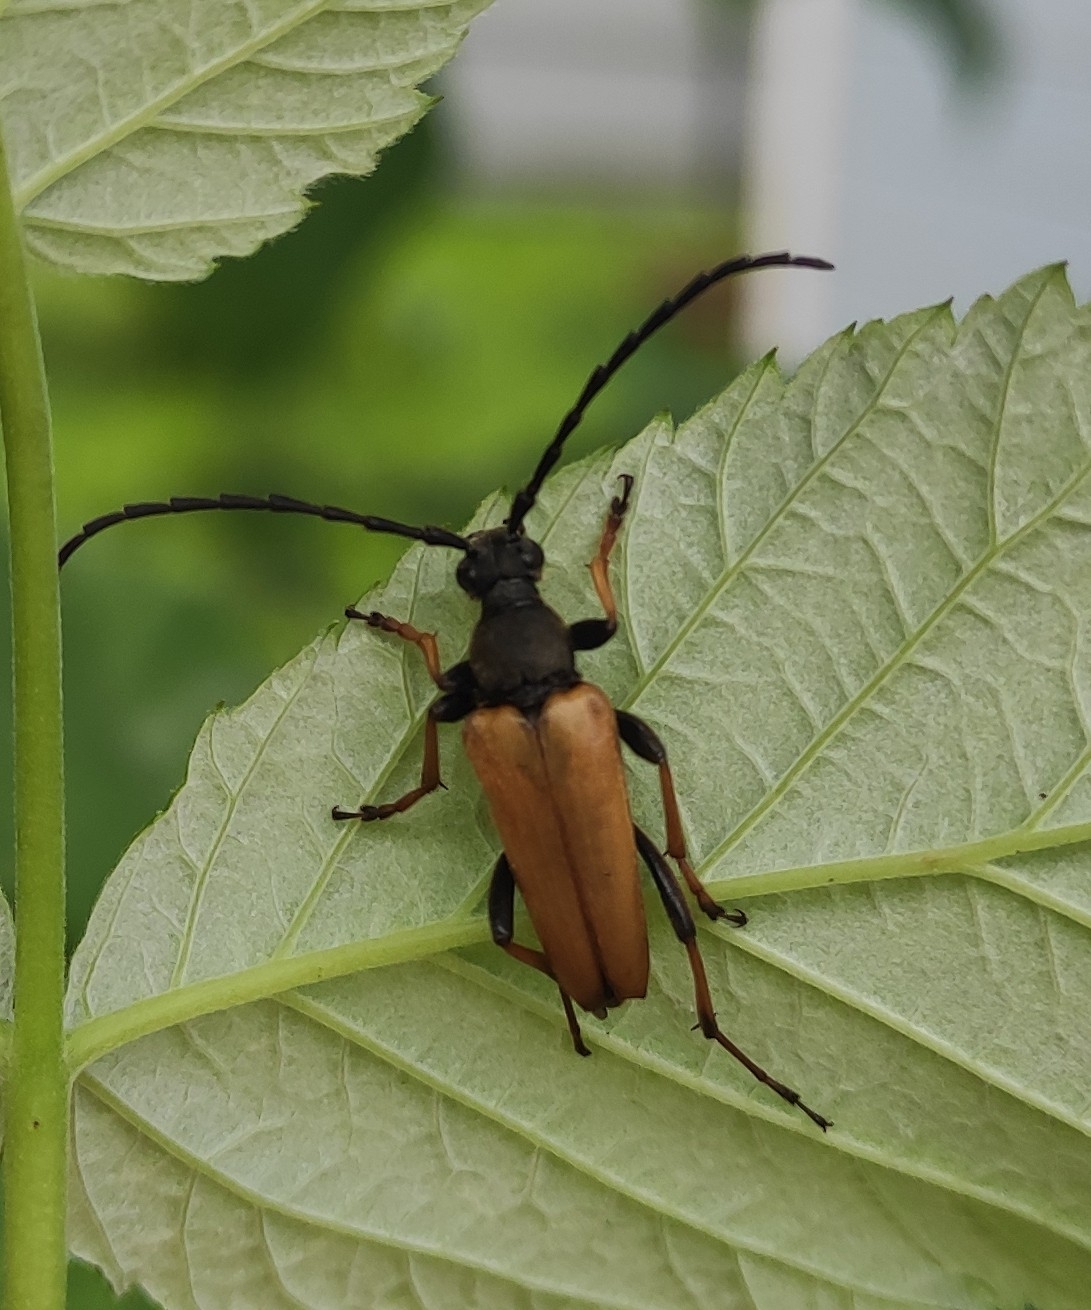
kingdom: Animalia
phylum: Arthropoda
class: Insecta
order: Coleoptera
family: Cerambycidae
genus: Stictoleptura
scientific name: Stictoleptura rubra
